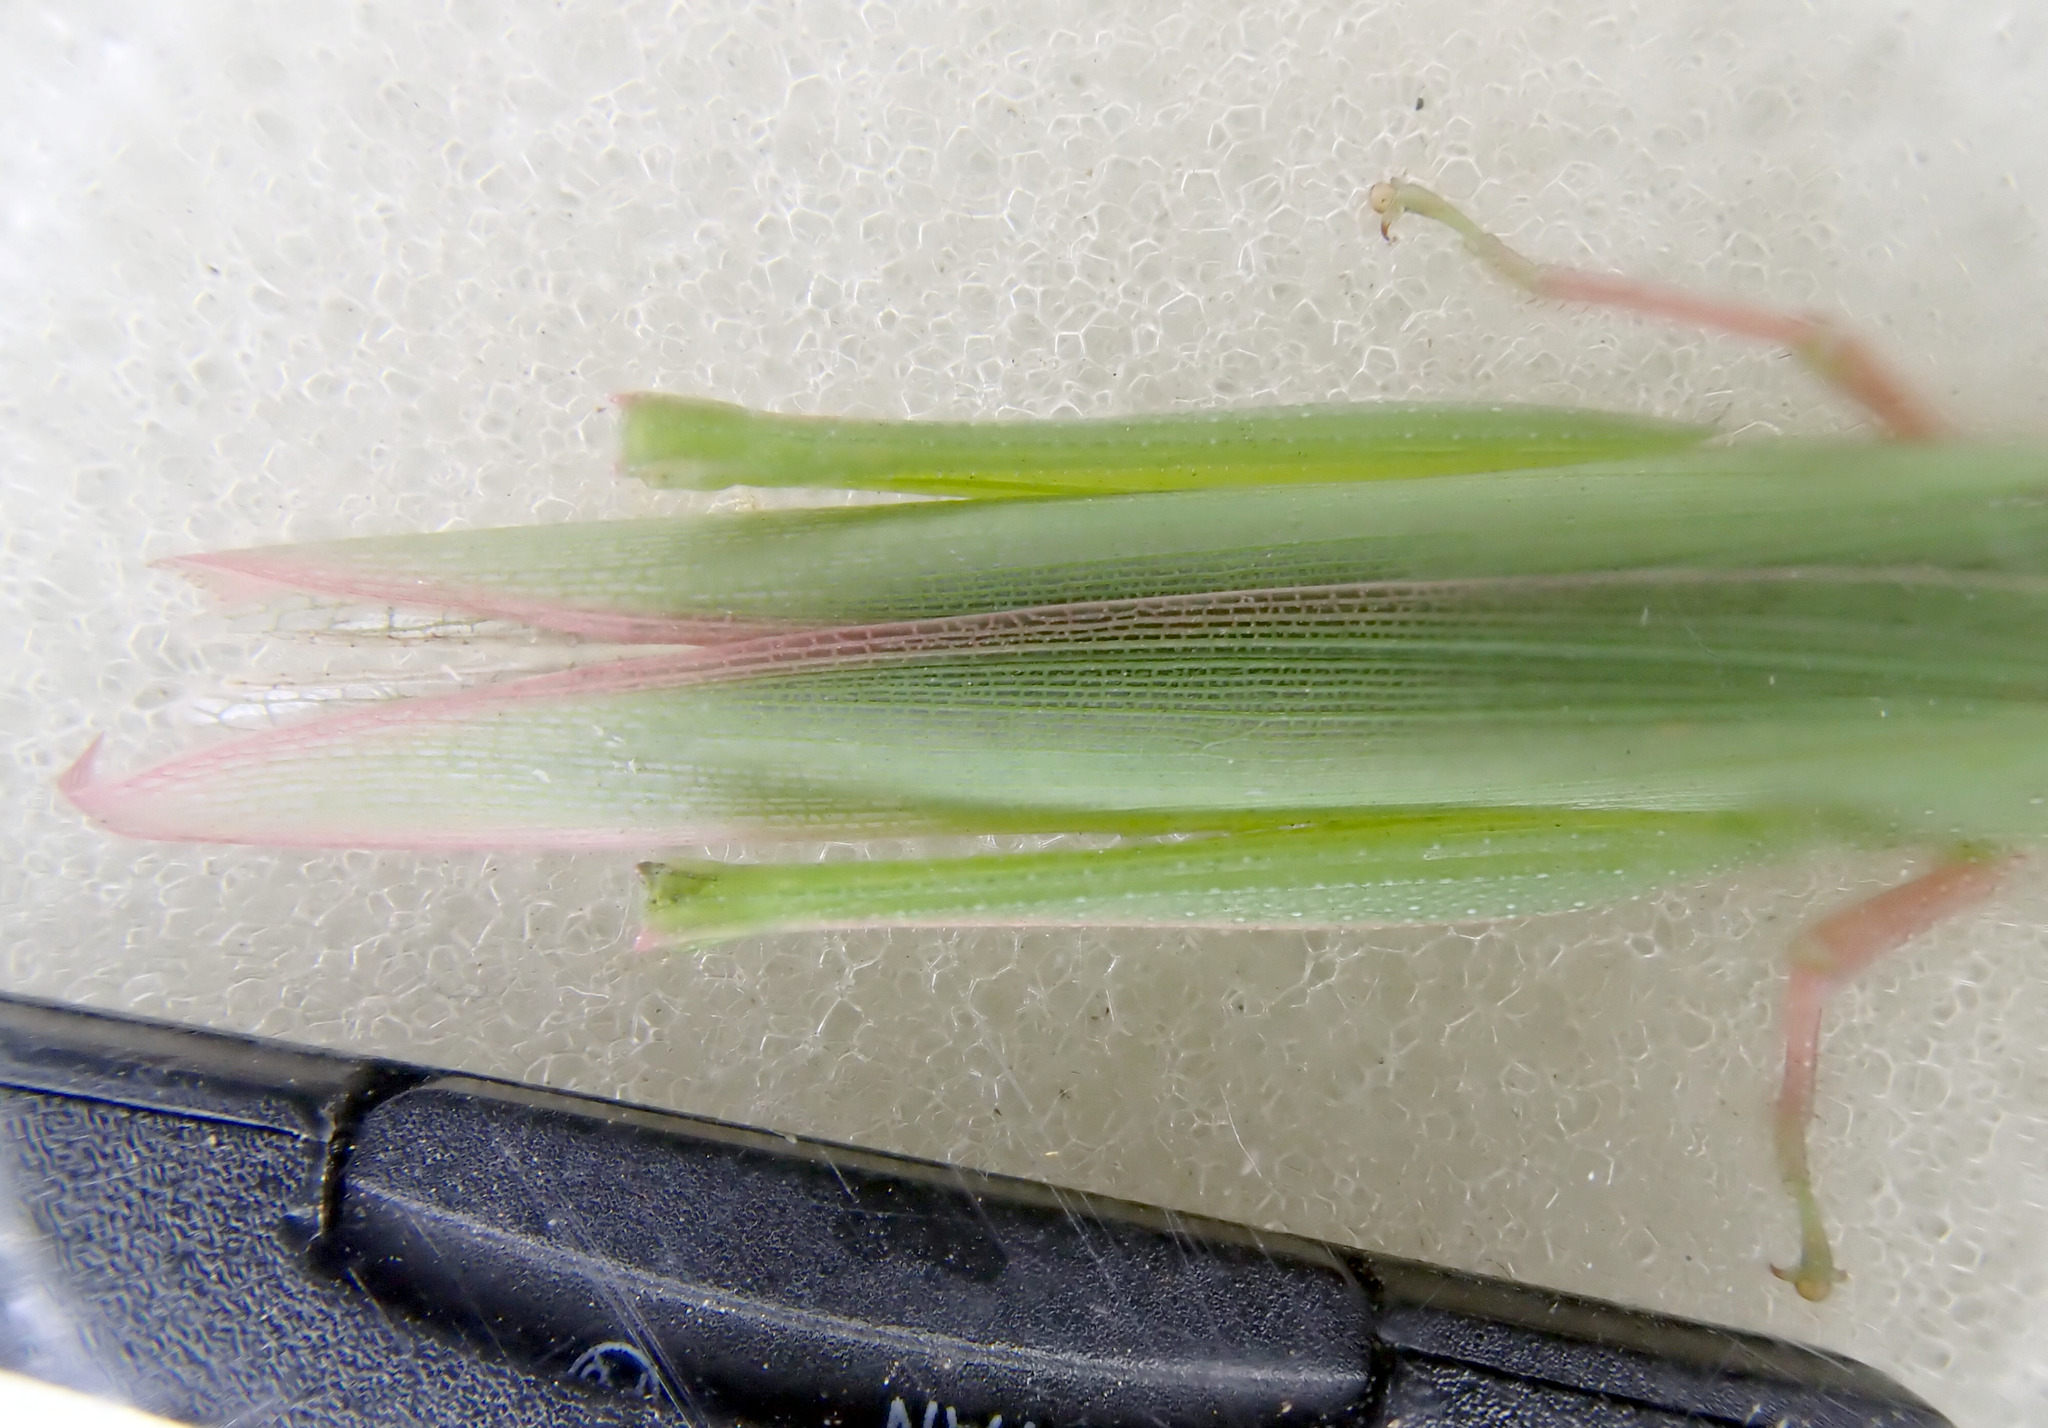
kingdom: Animalia
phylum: Arthropoda
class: Insecta
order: Orthoptera
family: Pyrgomorphidae
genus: Atractomorpha
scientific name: Atractomorpha similis
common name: Northern grass pyrgomorph
